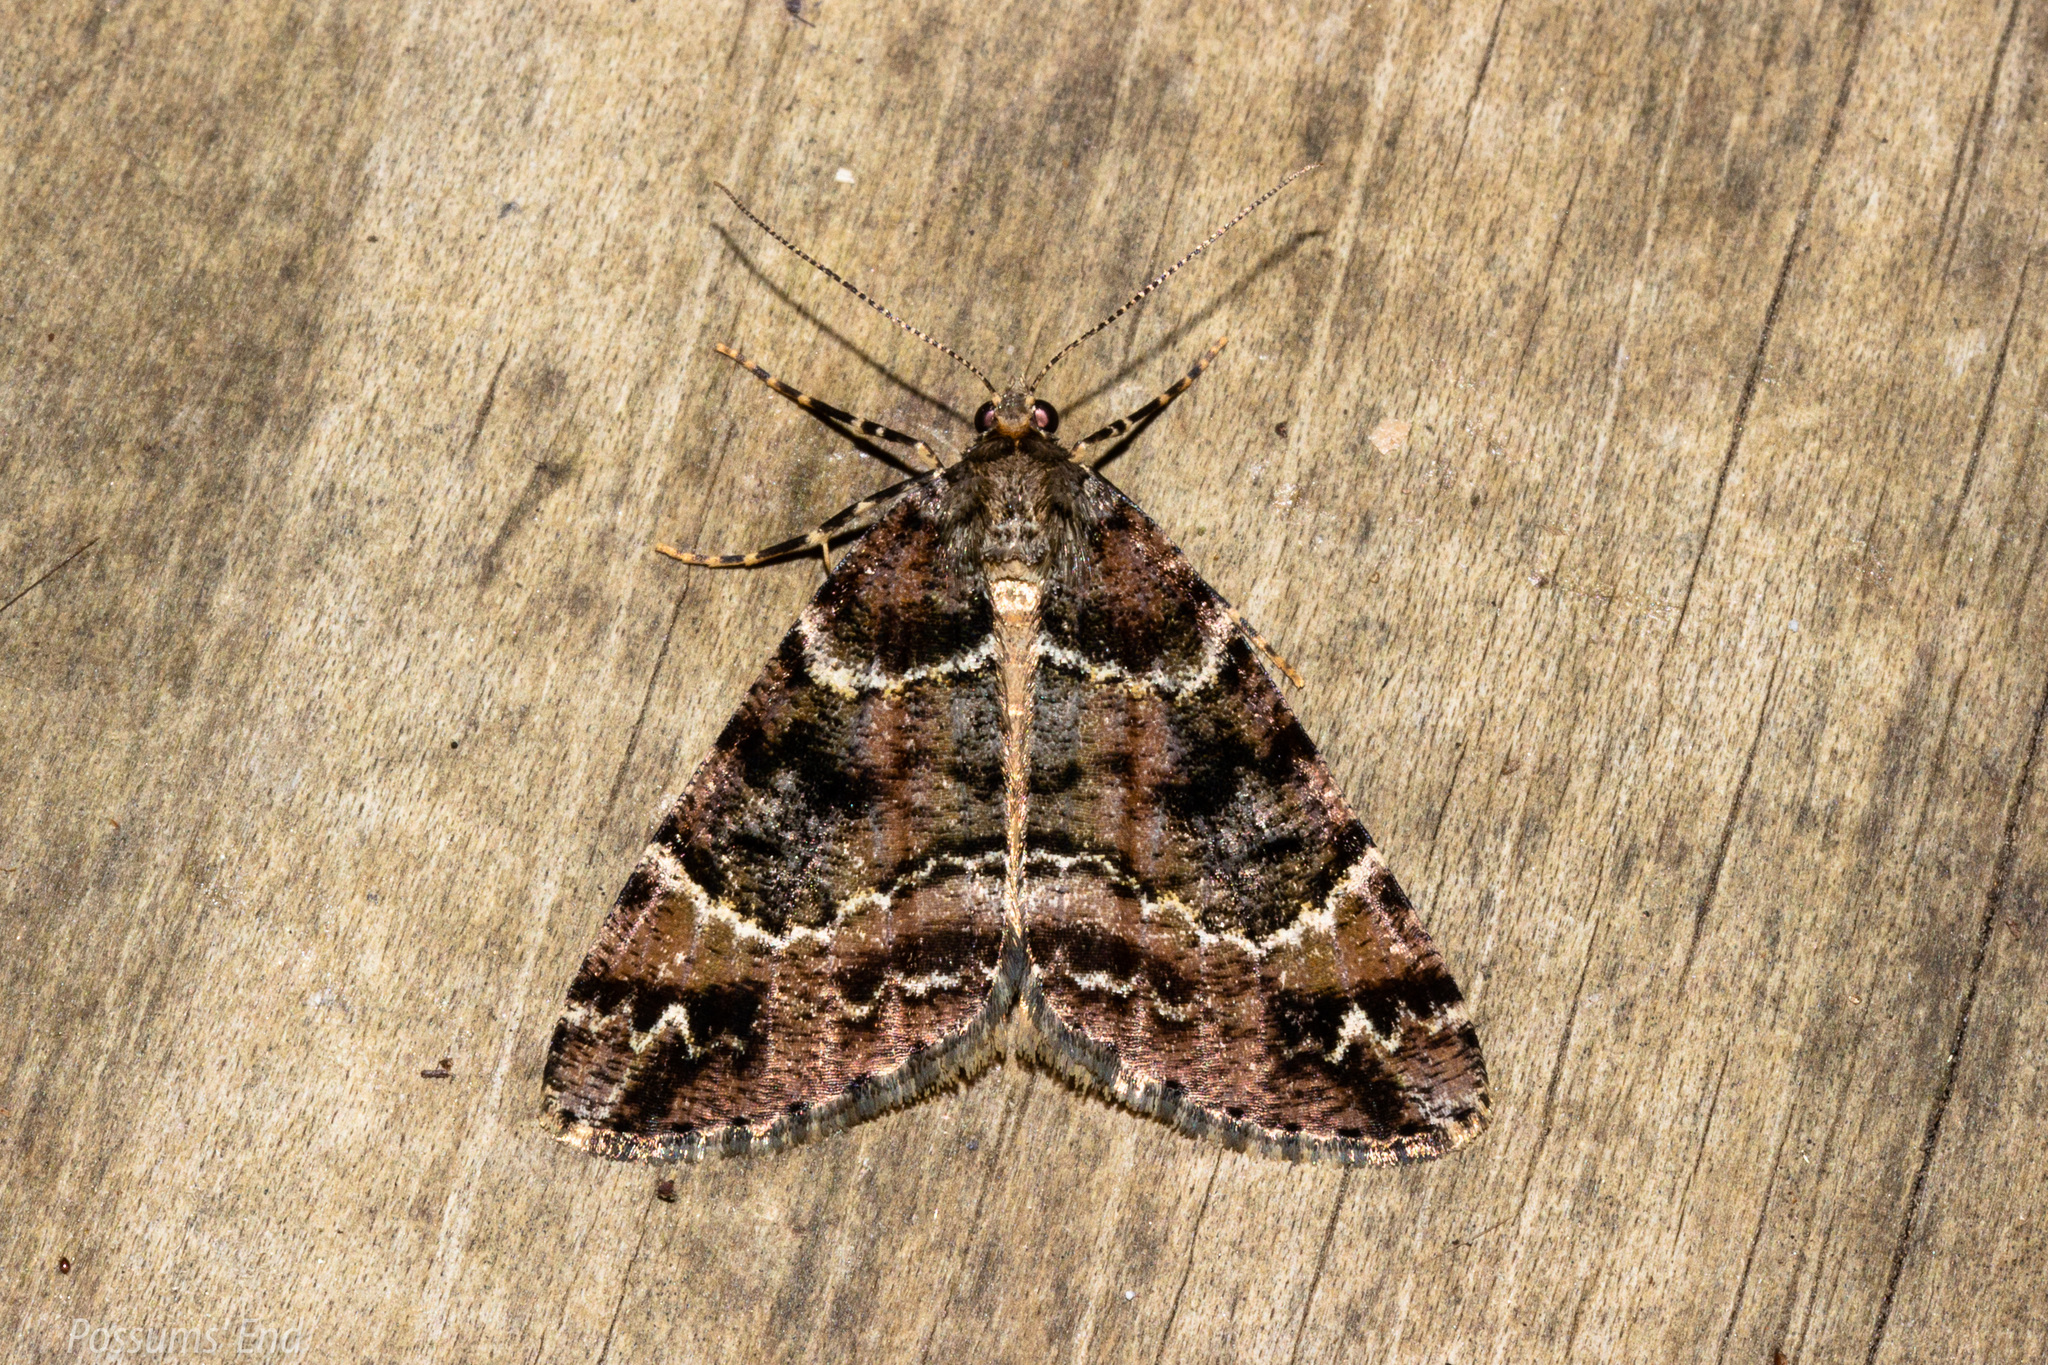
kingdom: Animalia
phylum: Arthropoda
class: Insecta
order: Lepidoptera
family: Geometridae
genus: Pseudocoremia
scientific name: Pseudocoremia productata
